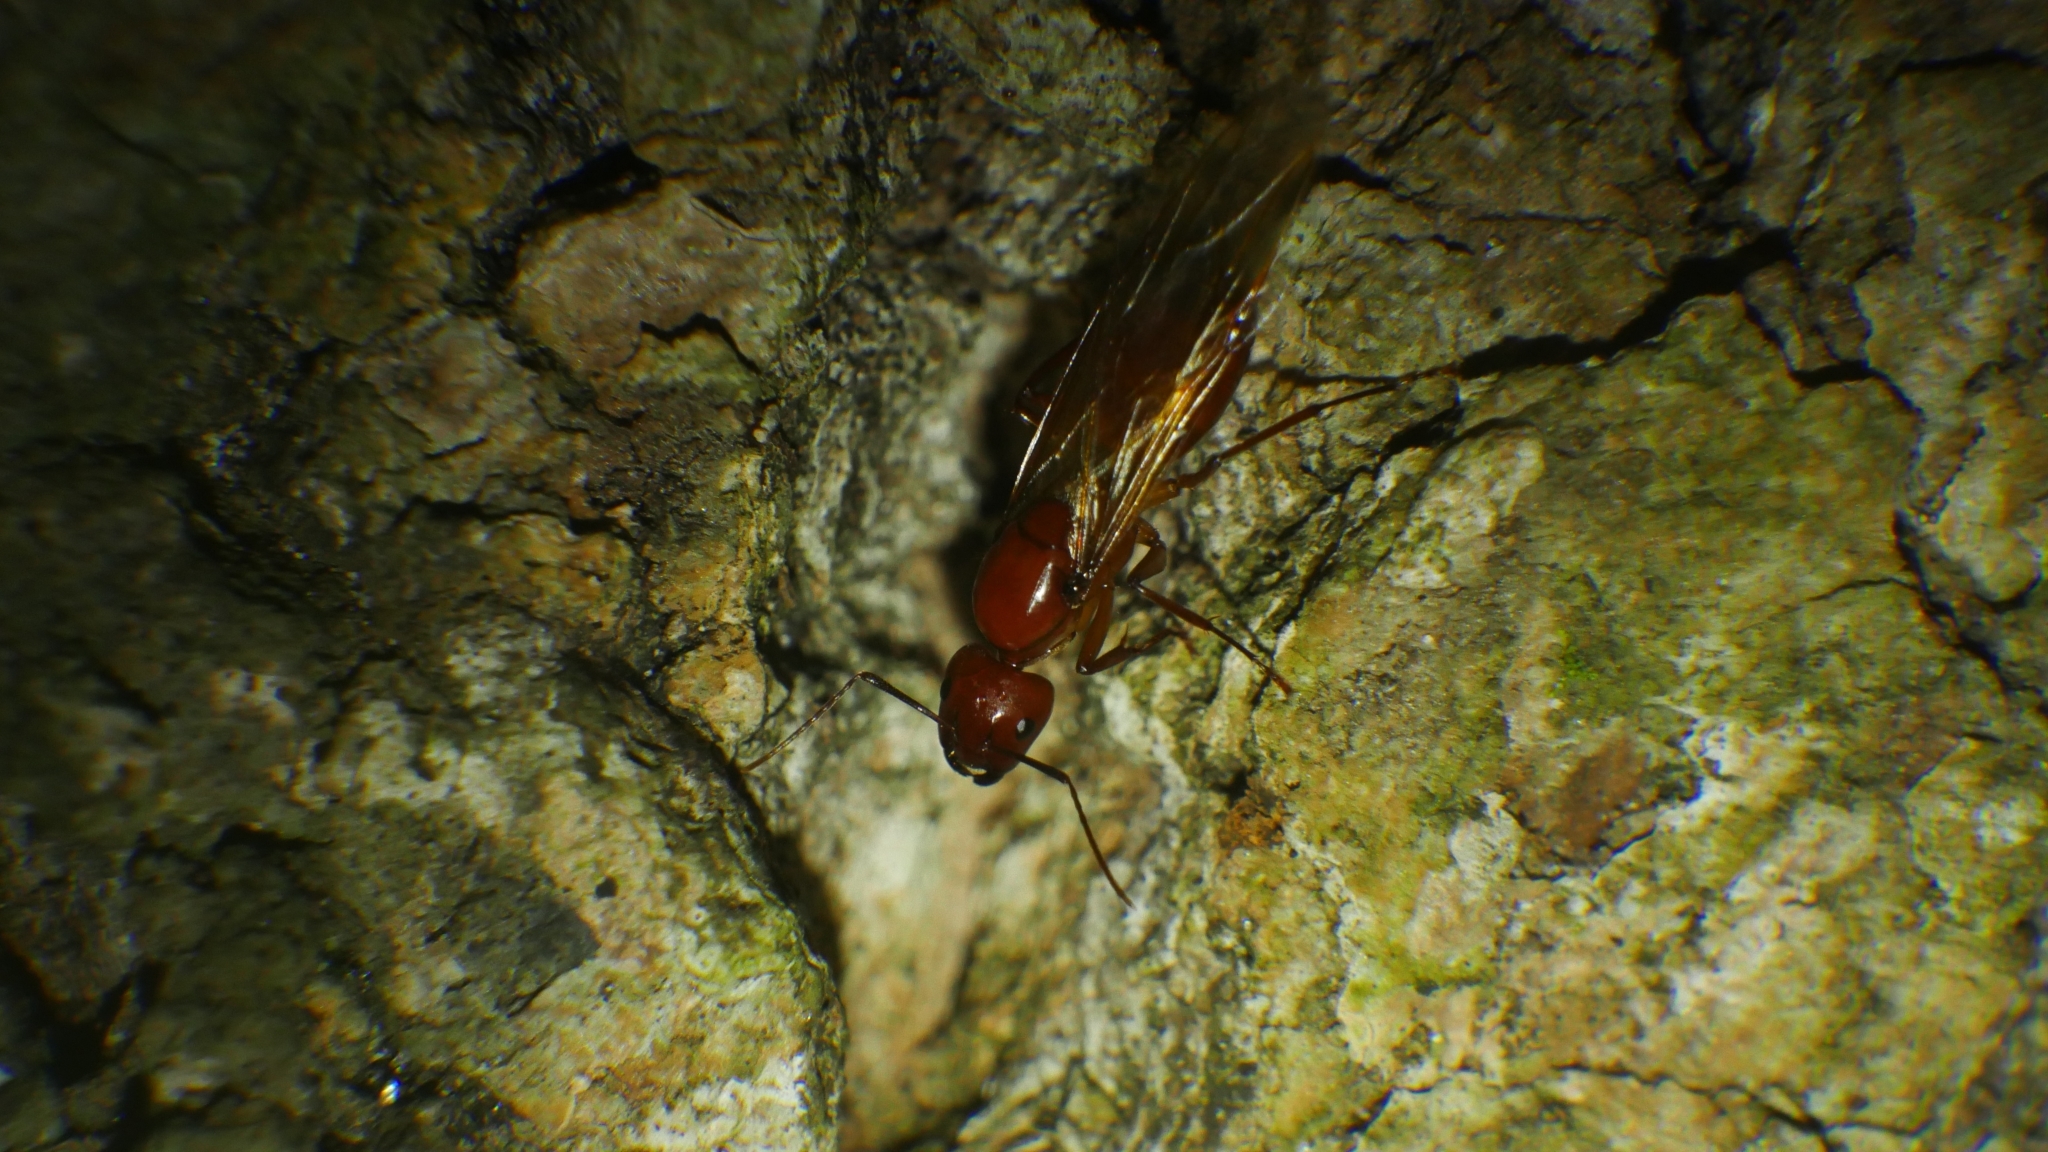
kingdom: Animalia
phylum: Arthropoda
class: Insecta
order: Hymenoptera
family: Formicidae
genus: Camponotus
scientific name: Camponotus castaneus
